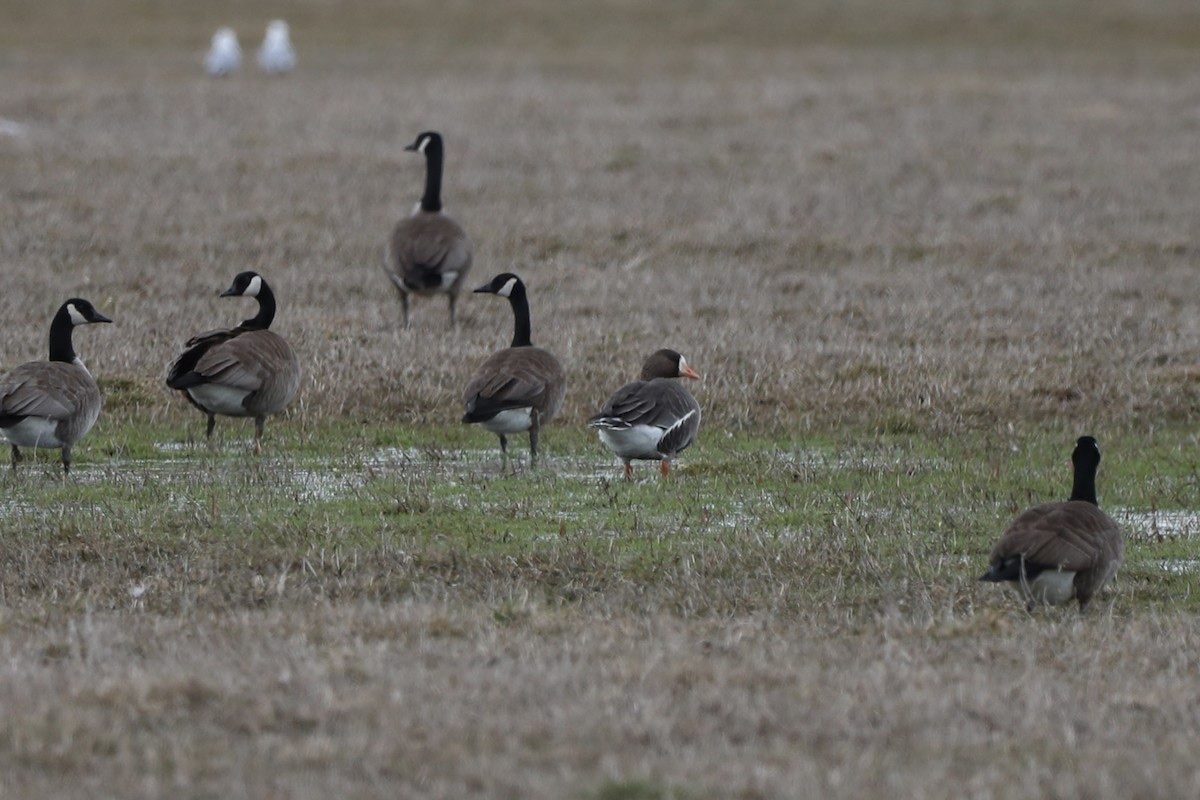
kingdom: Animalia
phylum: Chordata
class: Aves
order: Anseriformes
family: Anatidae
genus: Anser
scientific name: Anser albifrons
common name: Greater white-fronted goose
